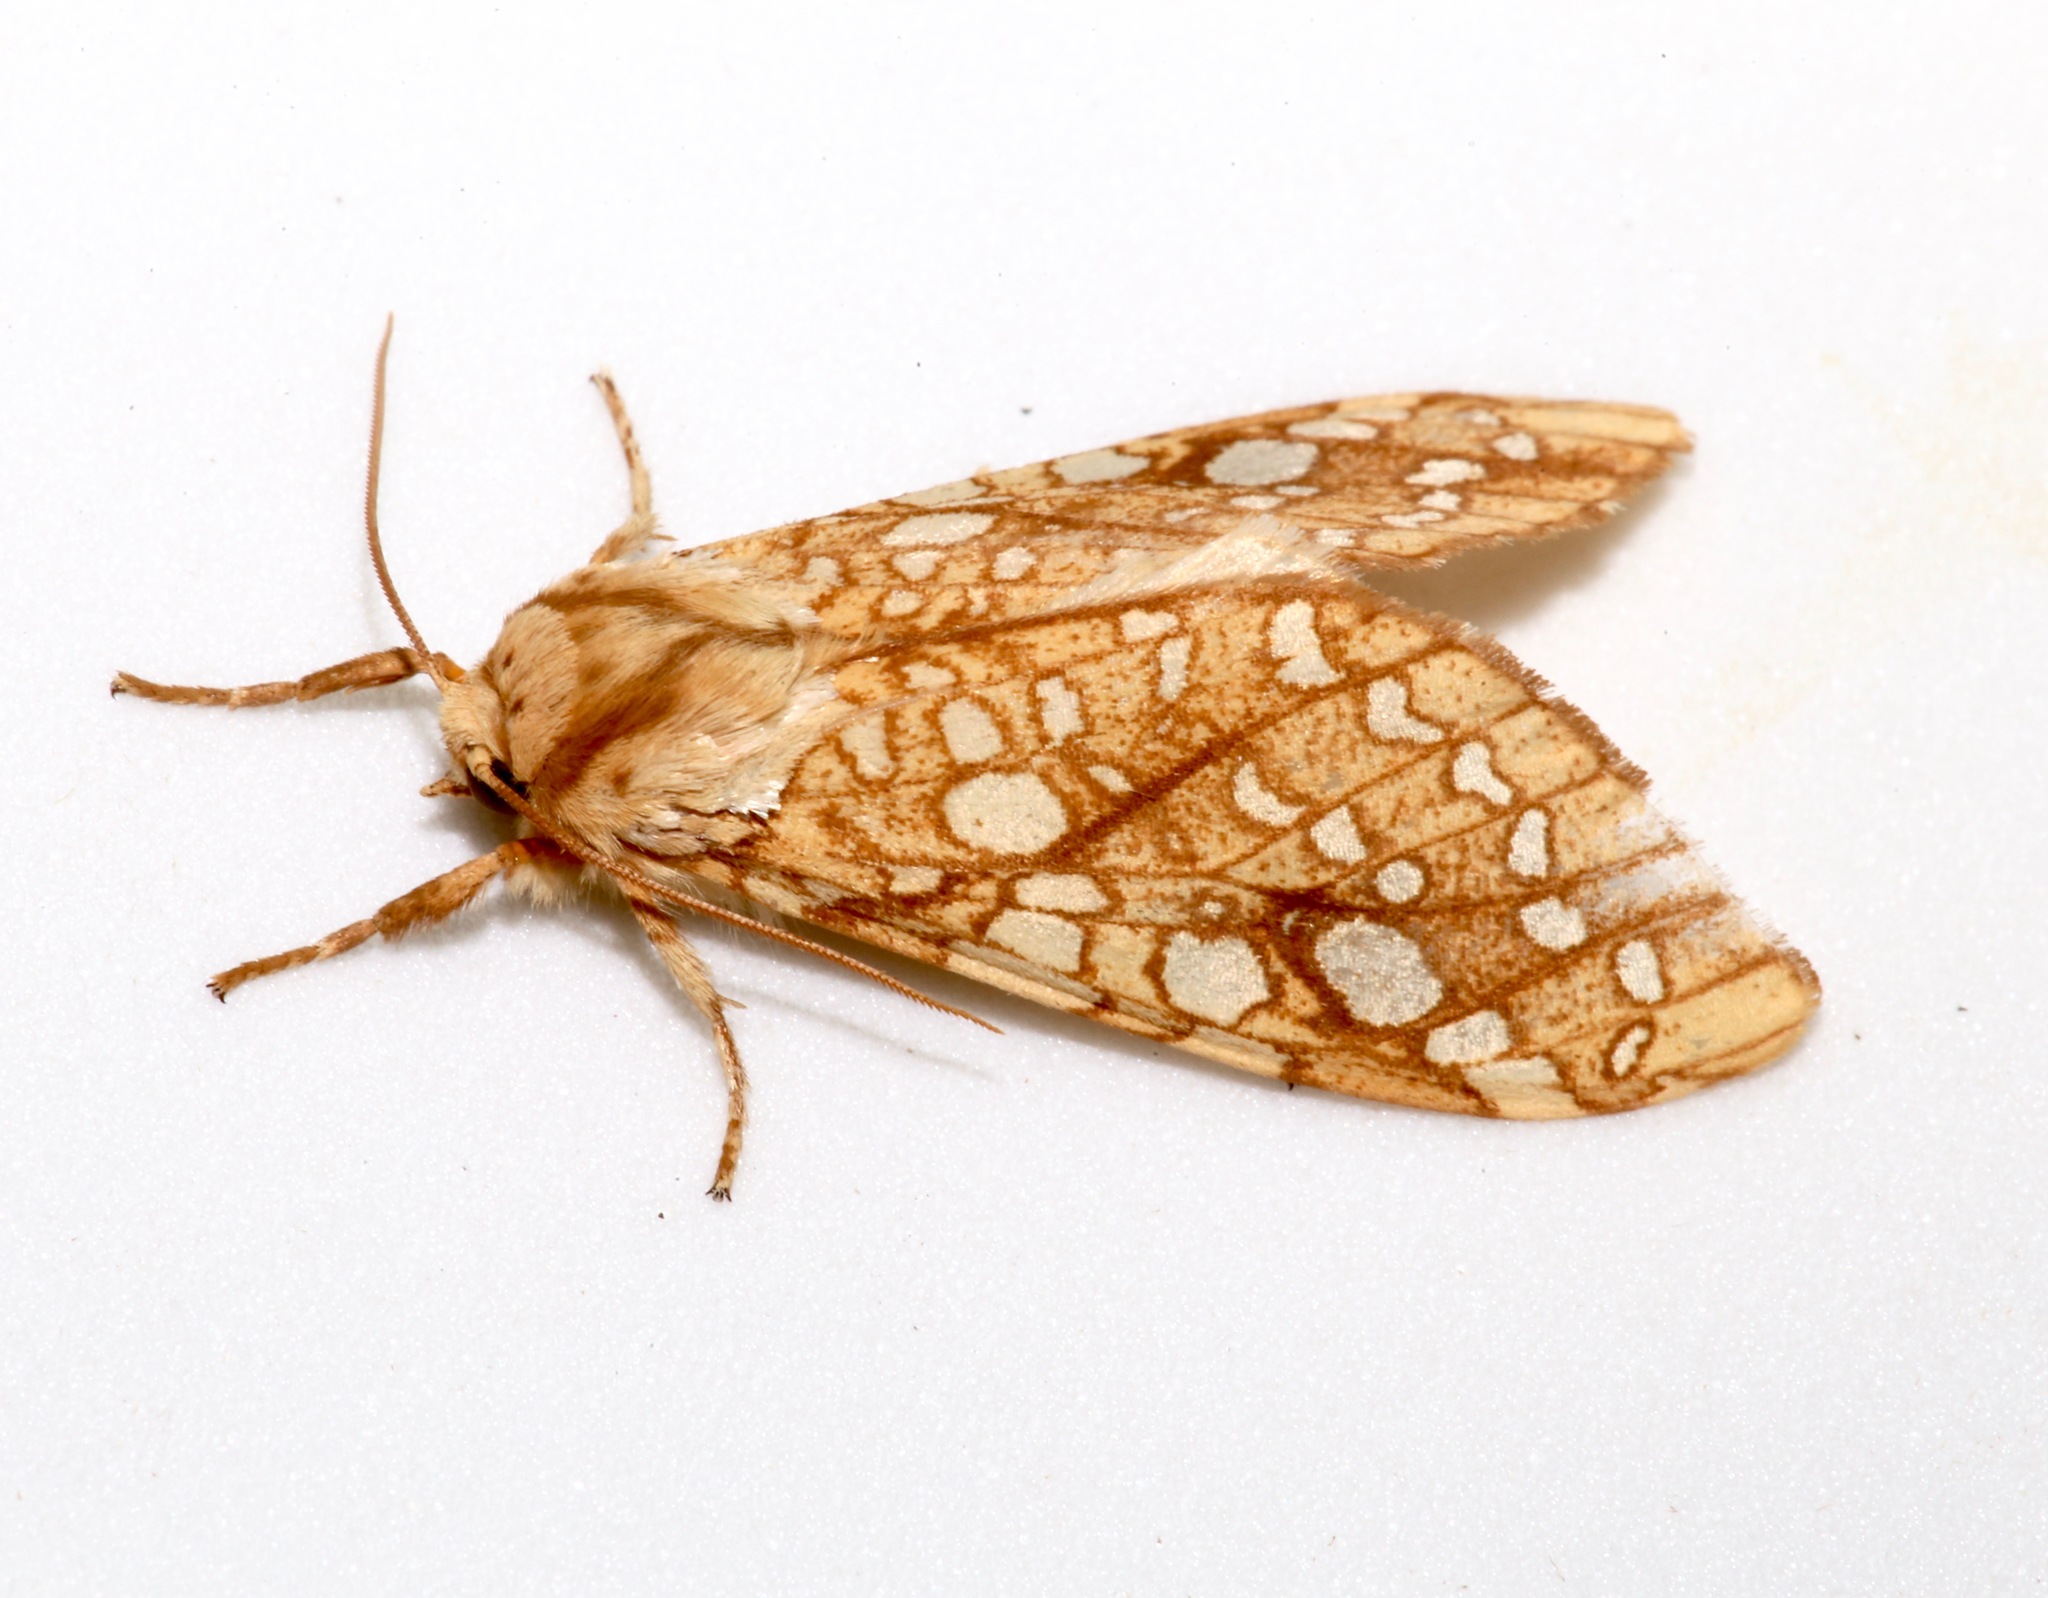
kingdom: Animalia
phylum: Arthropoda
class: Insecta
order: Lepidoptera
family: Erebidae
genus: Lophocampa
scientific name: Lophocampa caryae
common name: Hickory tussock moth
